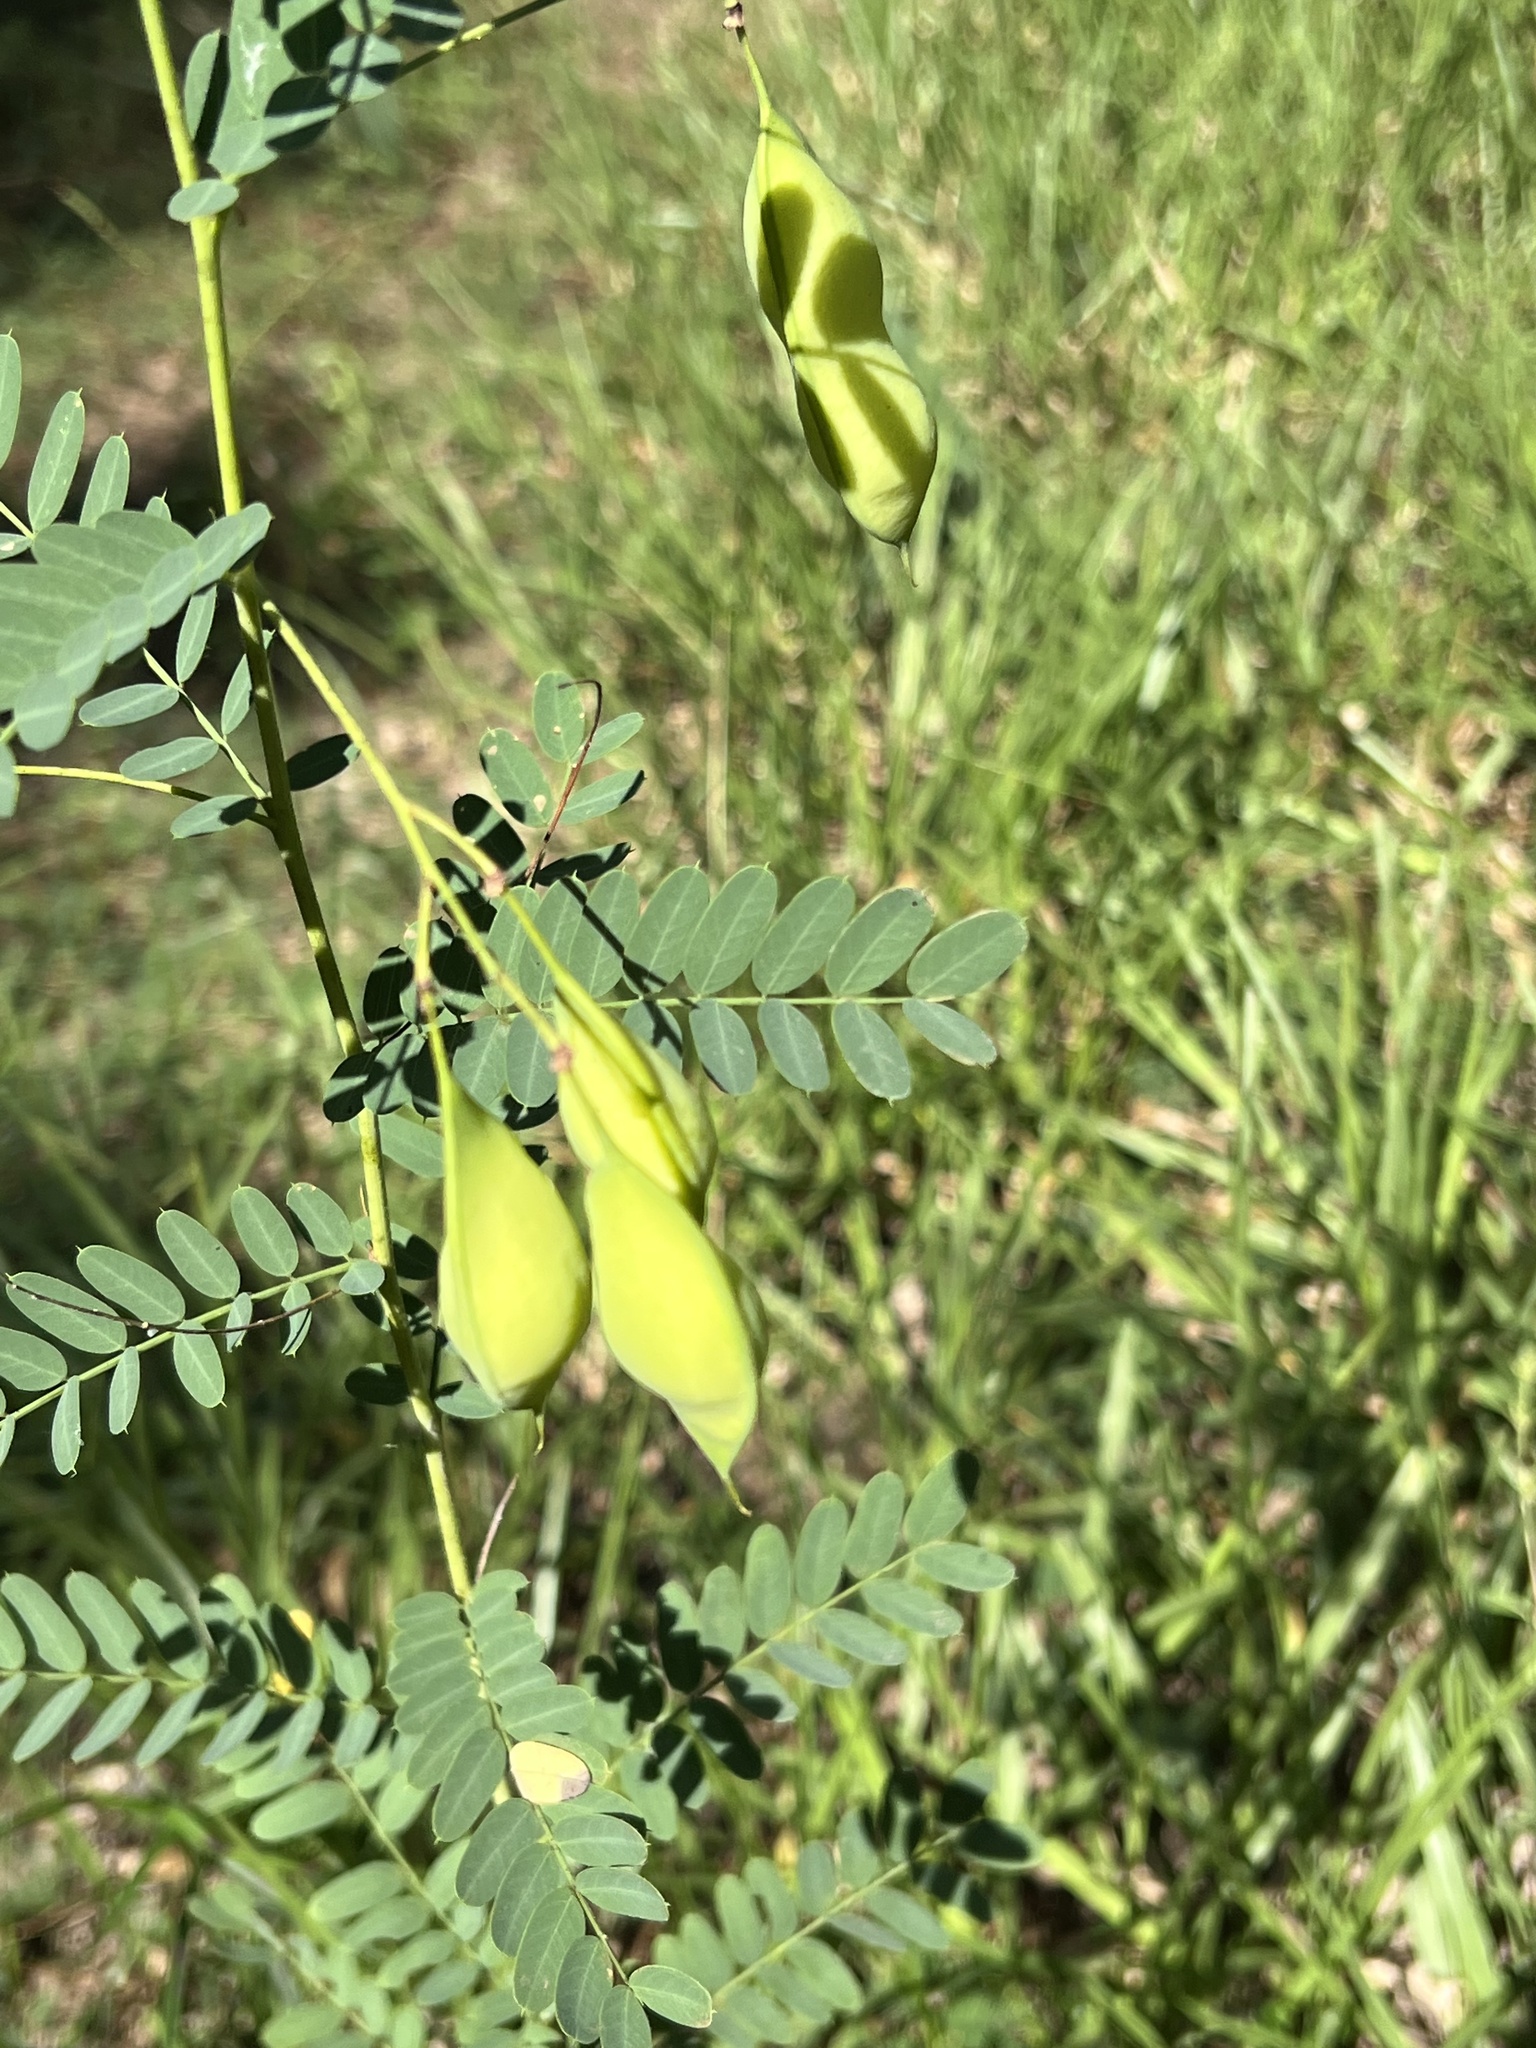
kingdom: Plantae
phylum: Tracheophyta
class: Magnoliopsida
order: Fabales
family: Fabaceae
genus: Sesbania
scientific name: Sesbania vesicaria
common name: Bagpod
